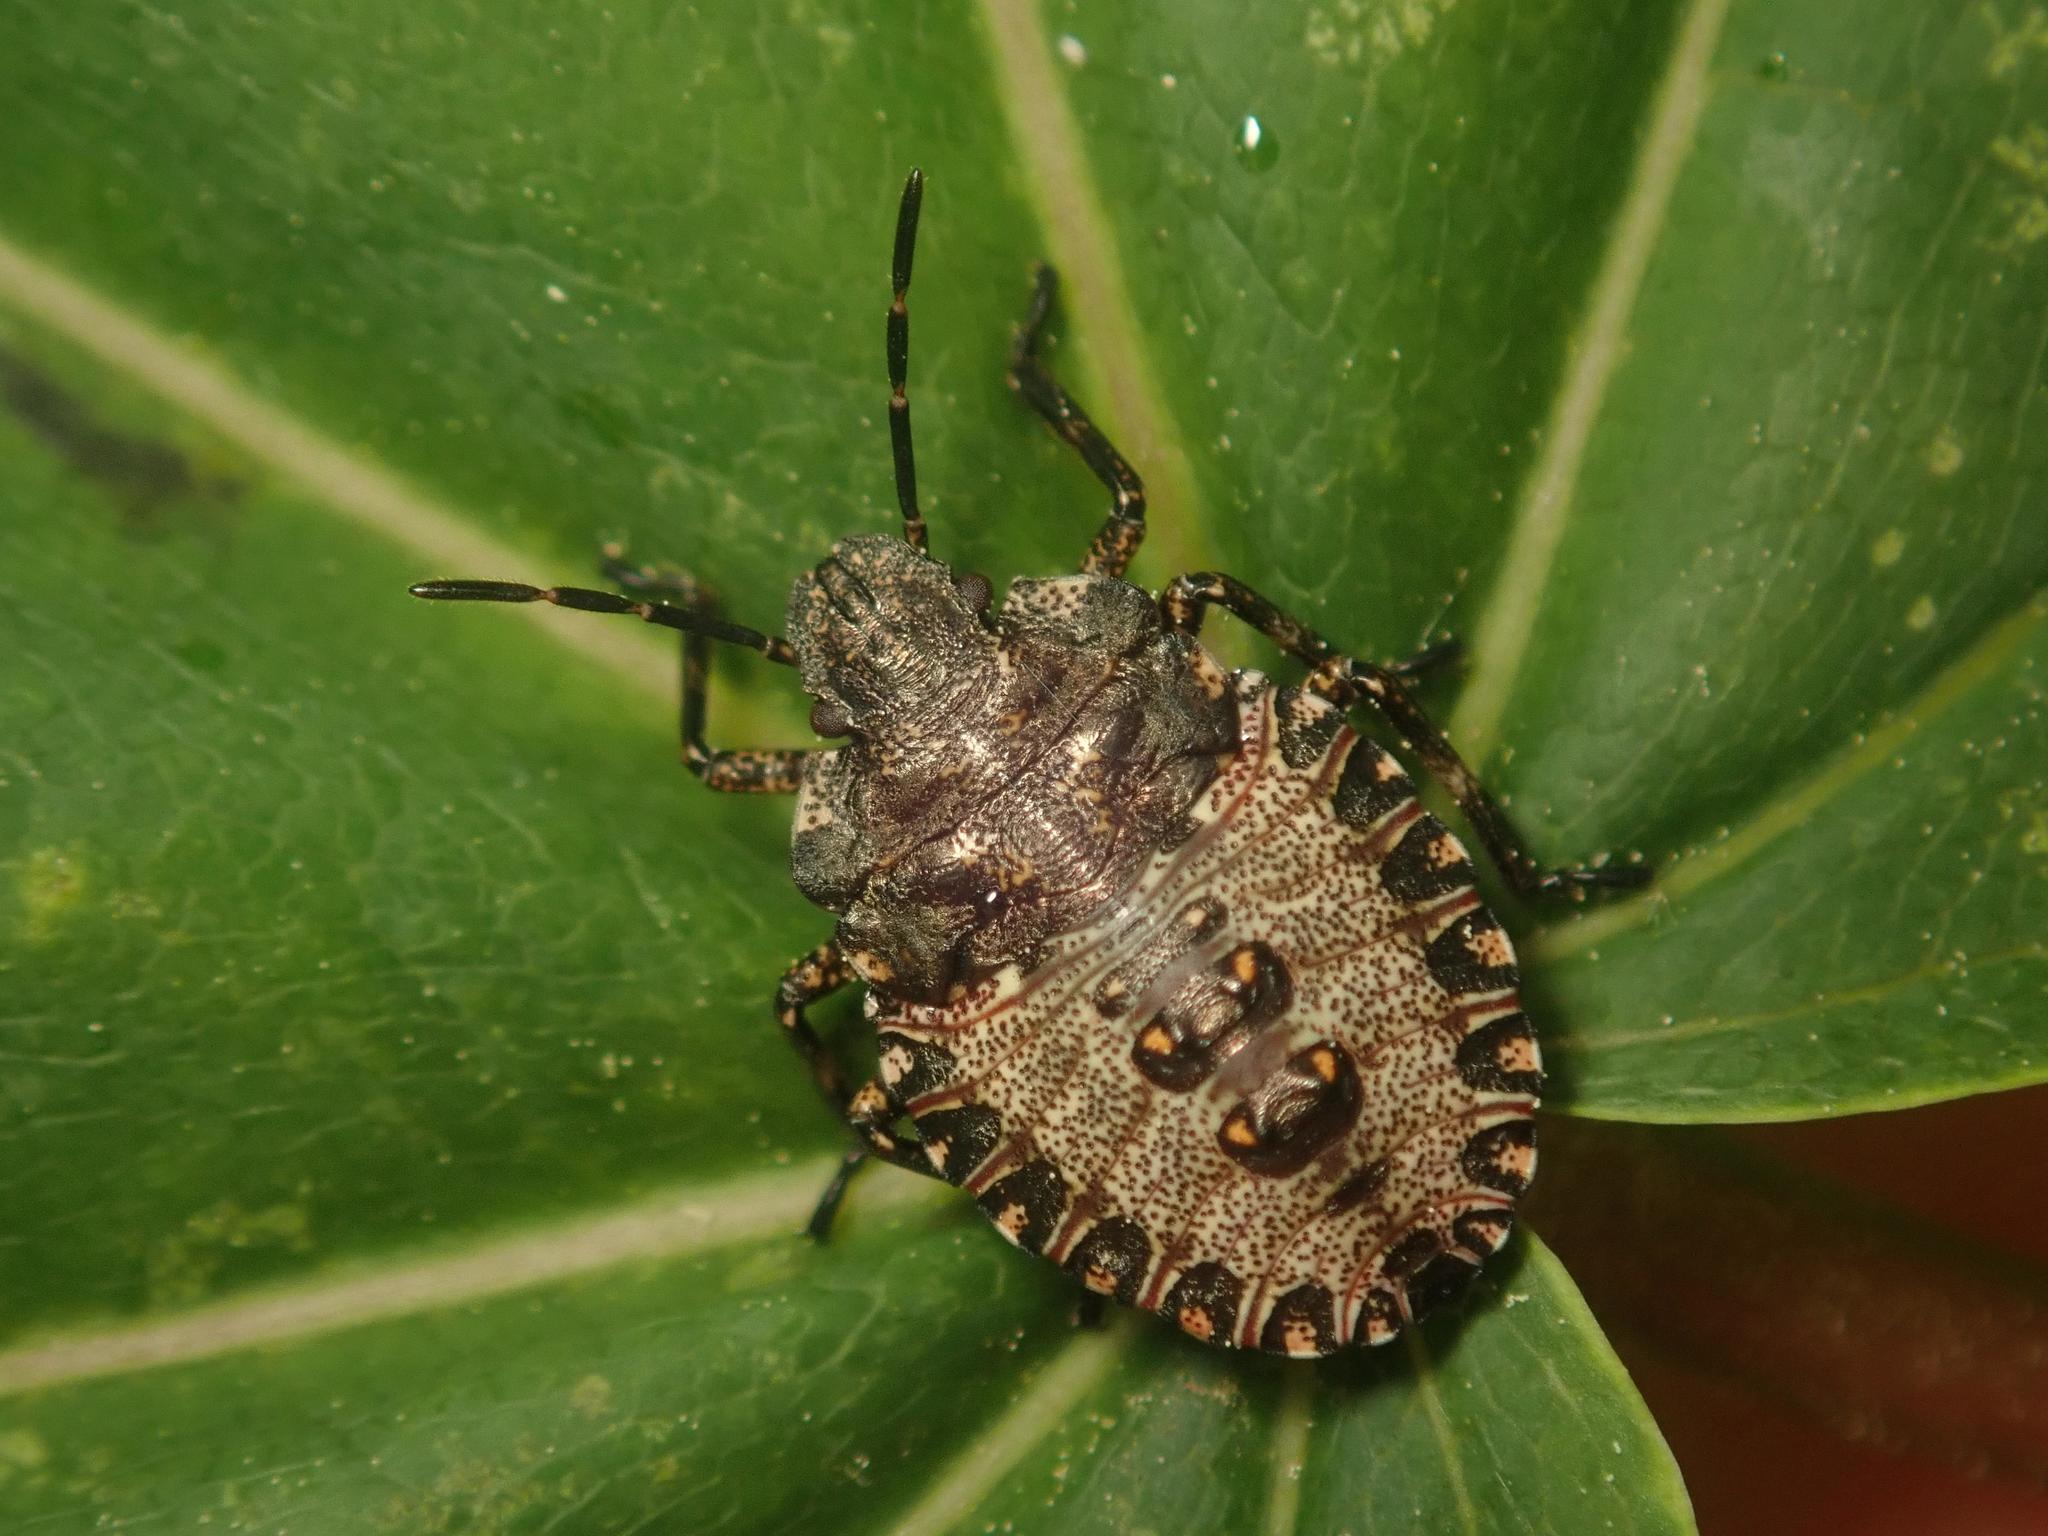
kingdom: Animalia
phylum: Arthropoda
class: Insecta
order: Hemiptera
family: Pentatomidae
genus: Pentatoma
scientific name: Pentatoma rufipes
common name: Forest bug
